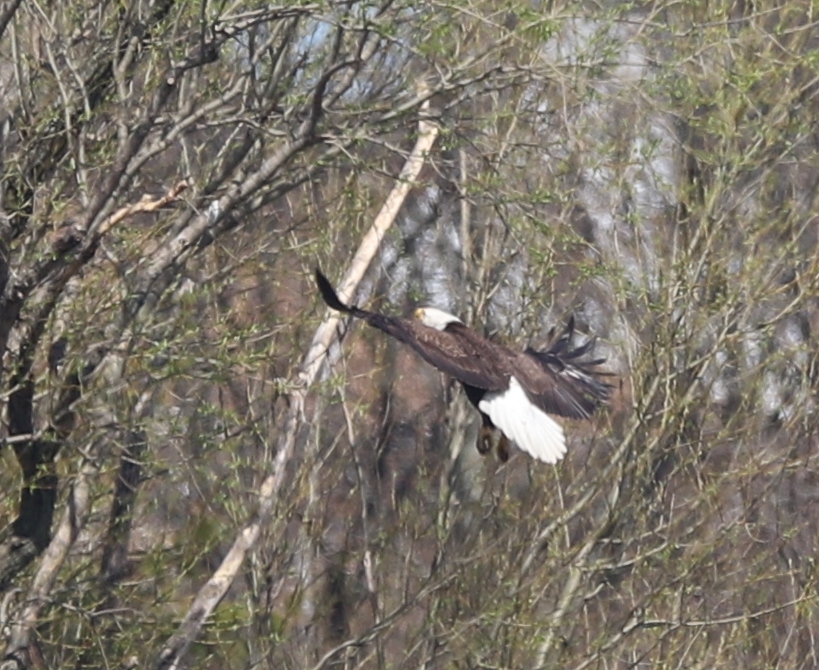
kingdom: Animalia
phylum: Chordata
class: Aves
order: Accipitriformes
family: Accipitridae
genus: Haliaeetus
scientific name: Haliaeetus leucocephalus
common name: Bald eagle
